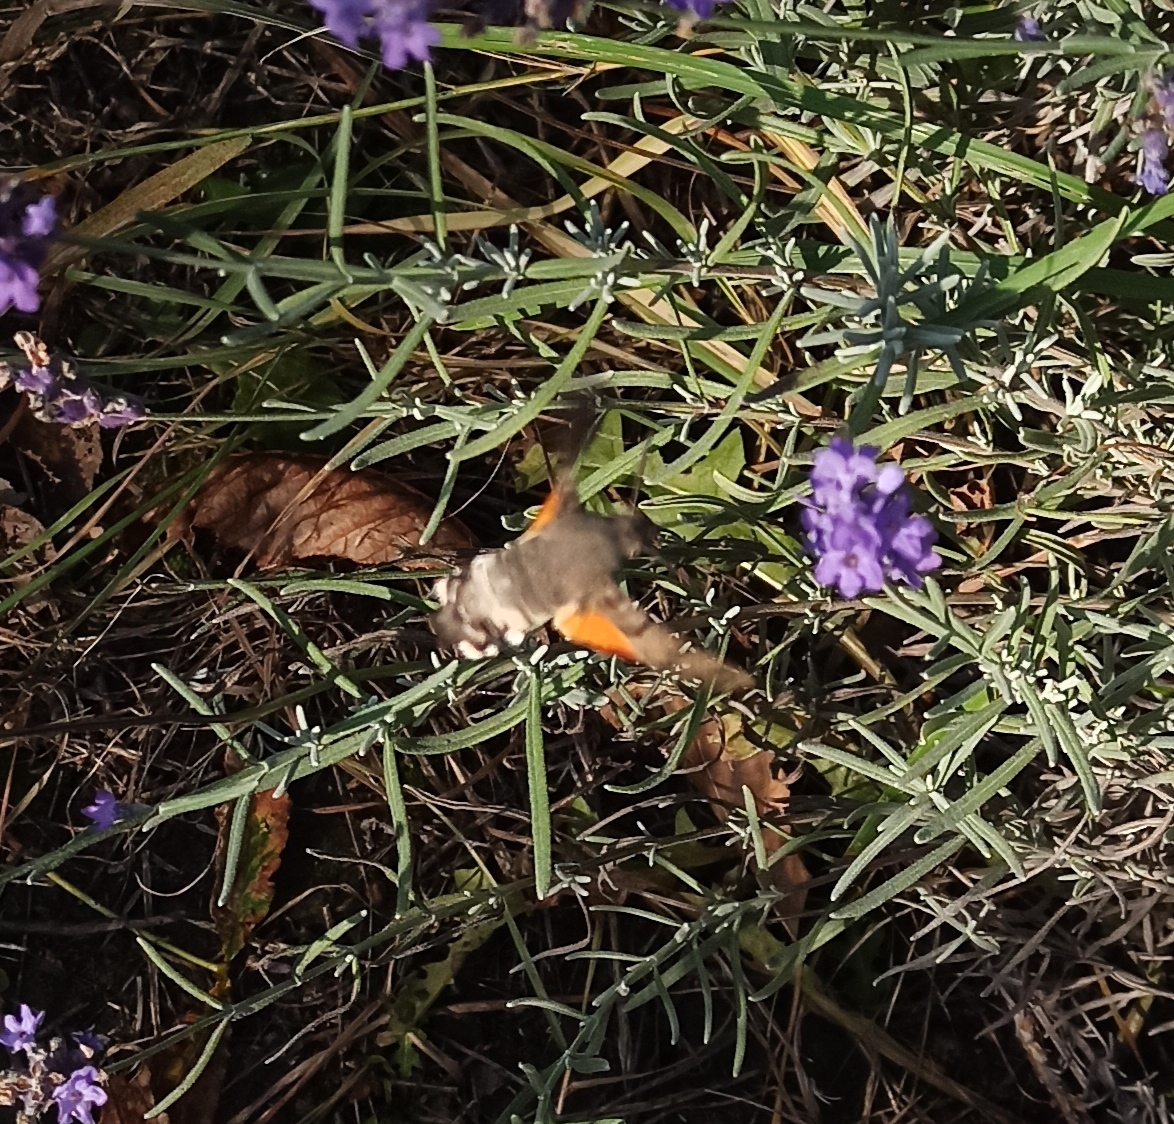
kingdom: Animalia
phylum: Arthropoda
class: Insecta
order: Lepidoptera
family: Sphingidae
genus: Macroglossum
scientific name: Macroglossum stellatarum
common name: Humming-bird hawk-moth
